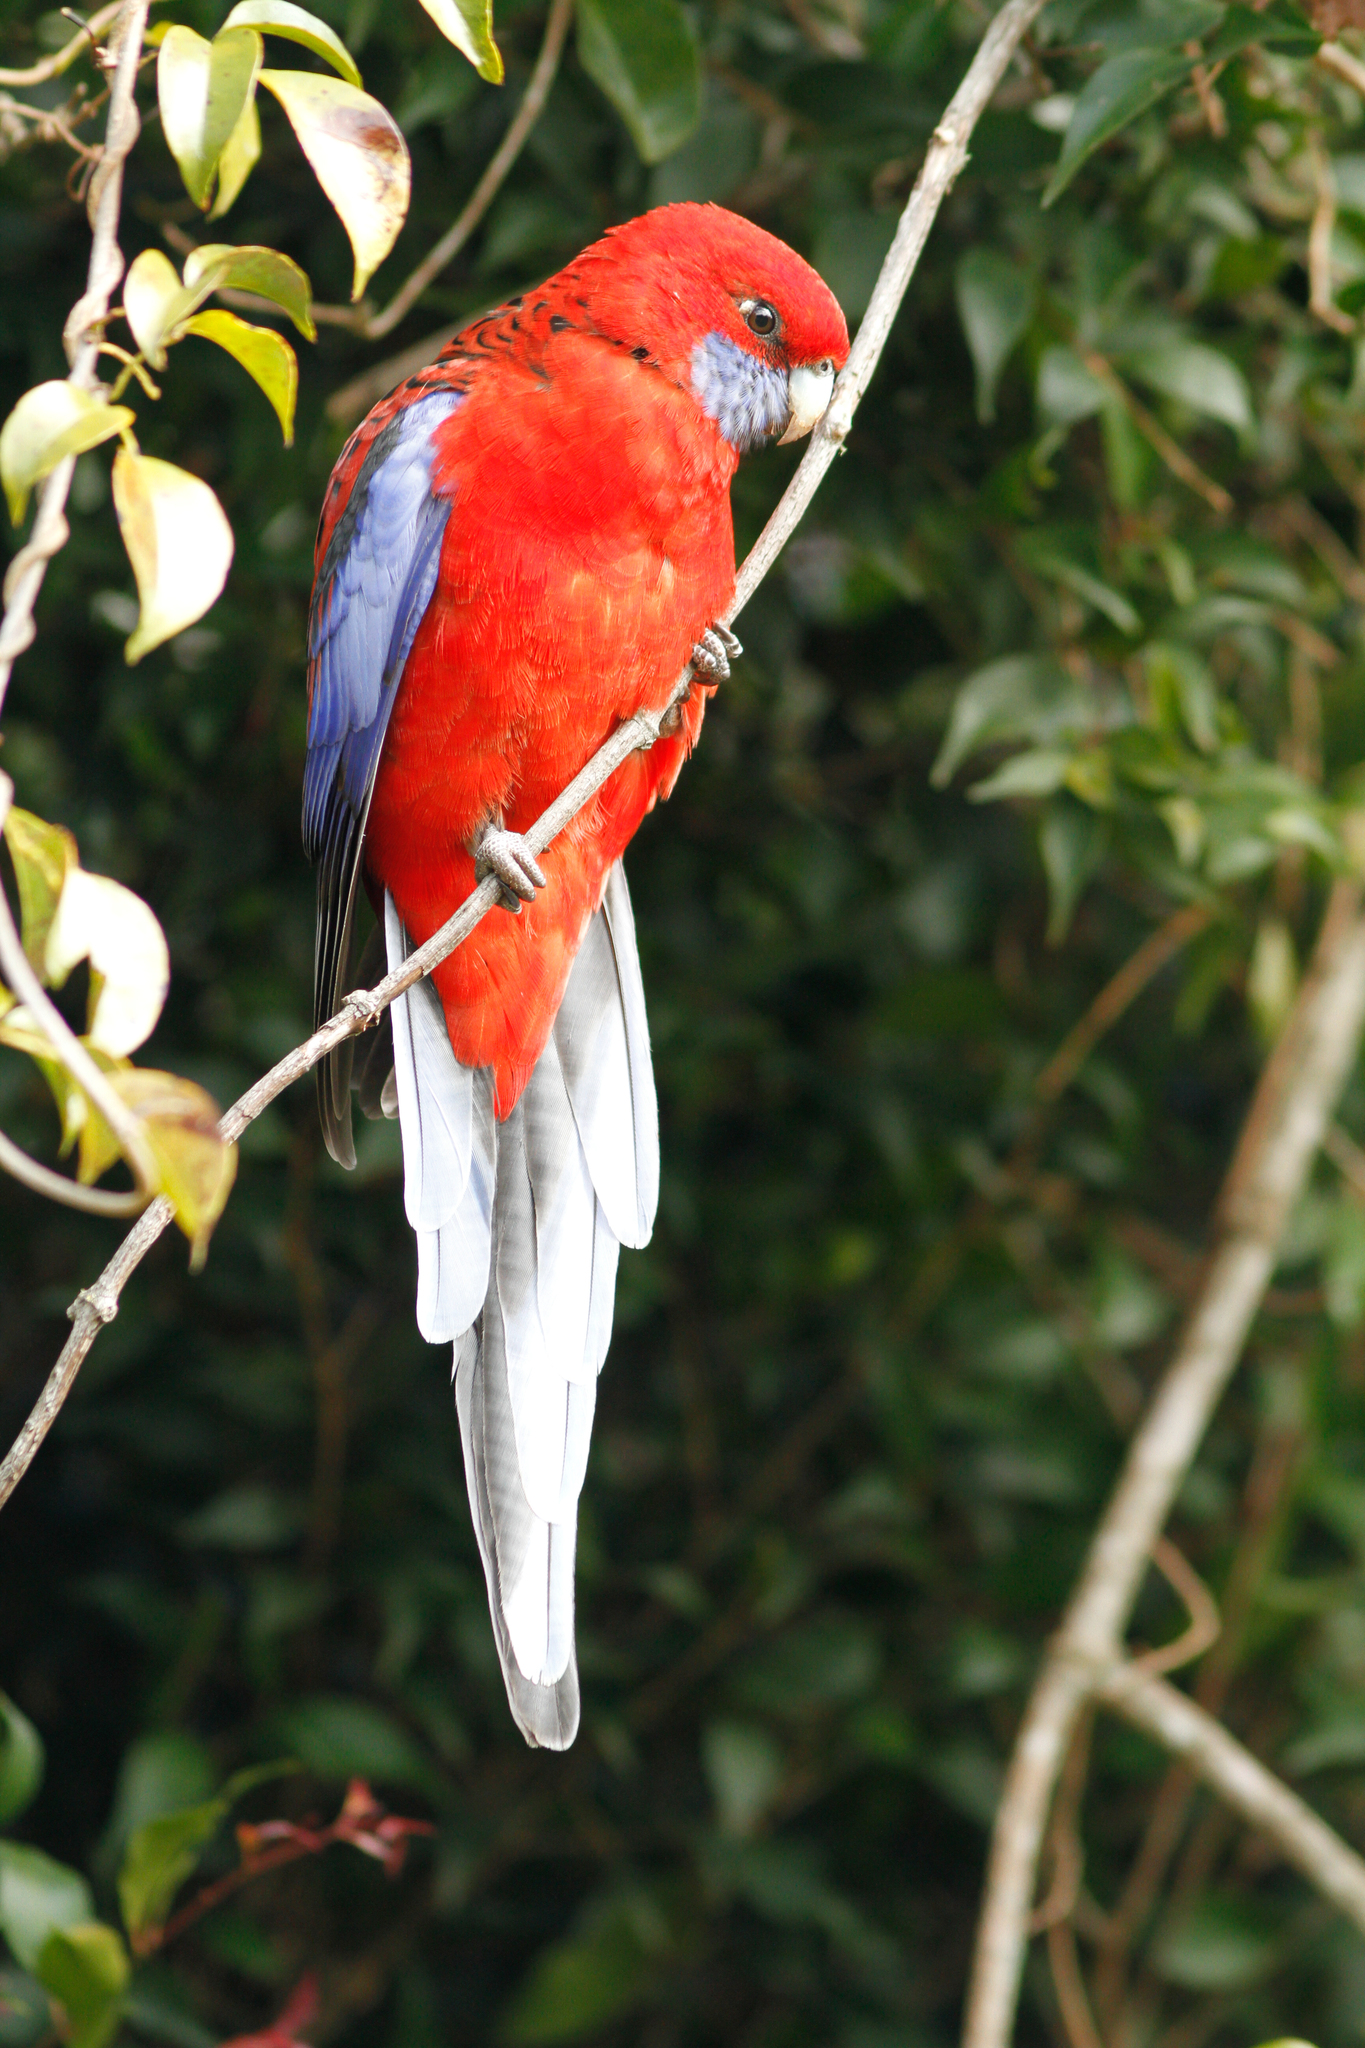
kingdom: Animalia
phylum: Chordata
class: Aves
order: Psittaciformes
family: Psittacidae
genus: Platycercus
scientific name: Platycercus elegans
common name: Crimson rosella
